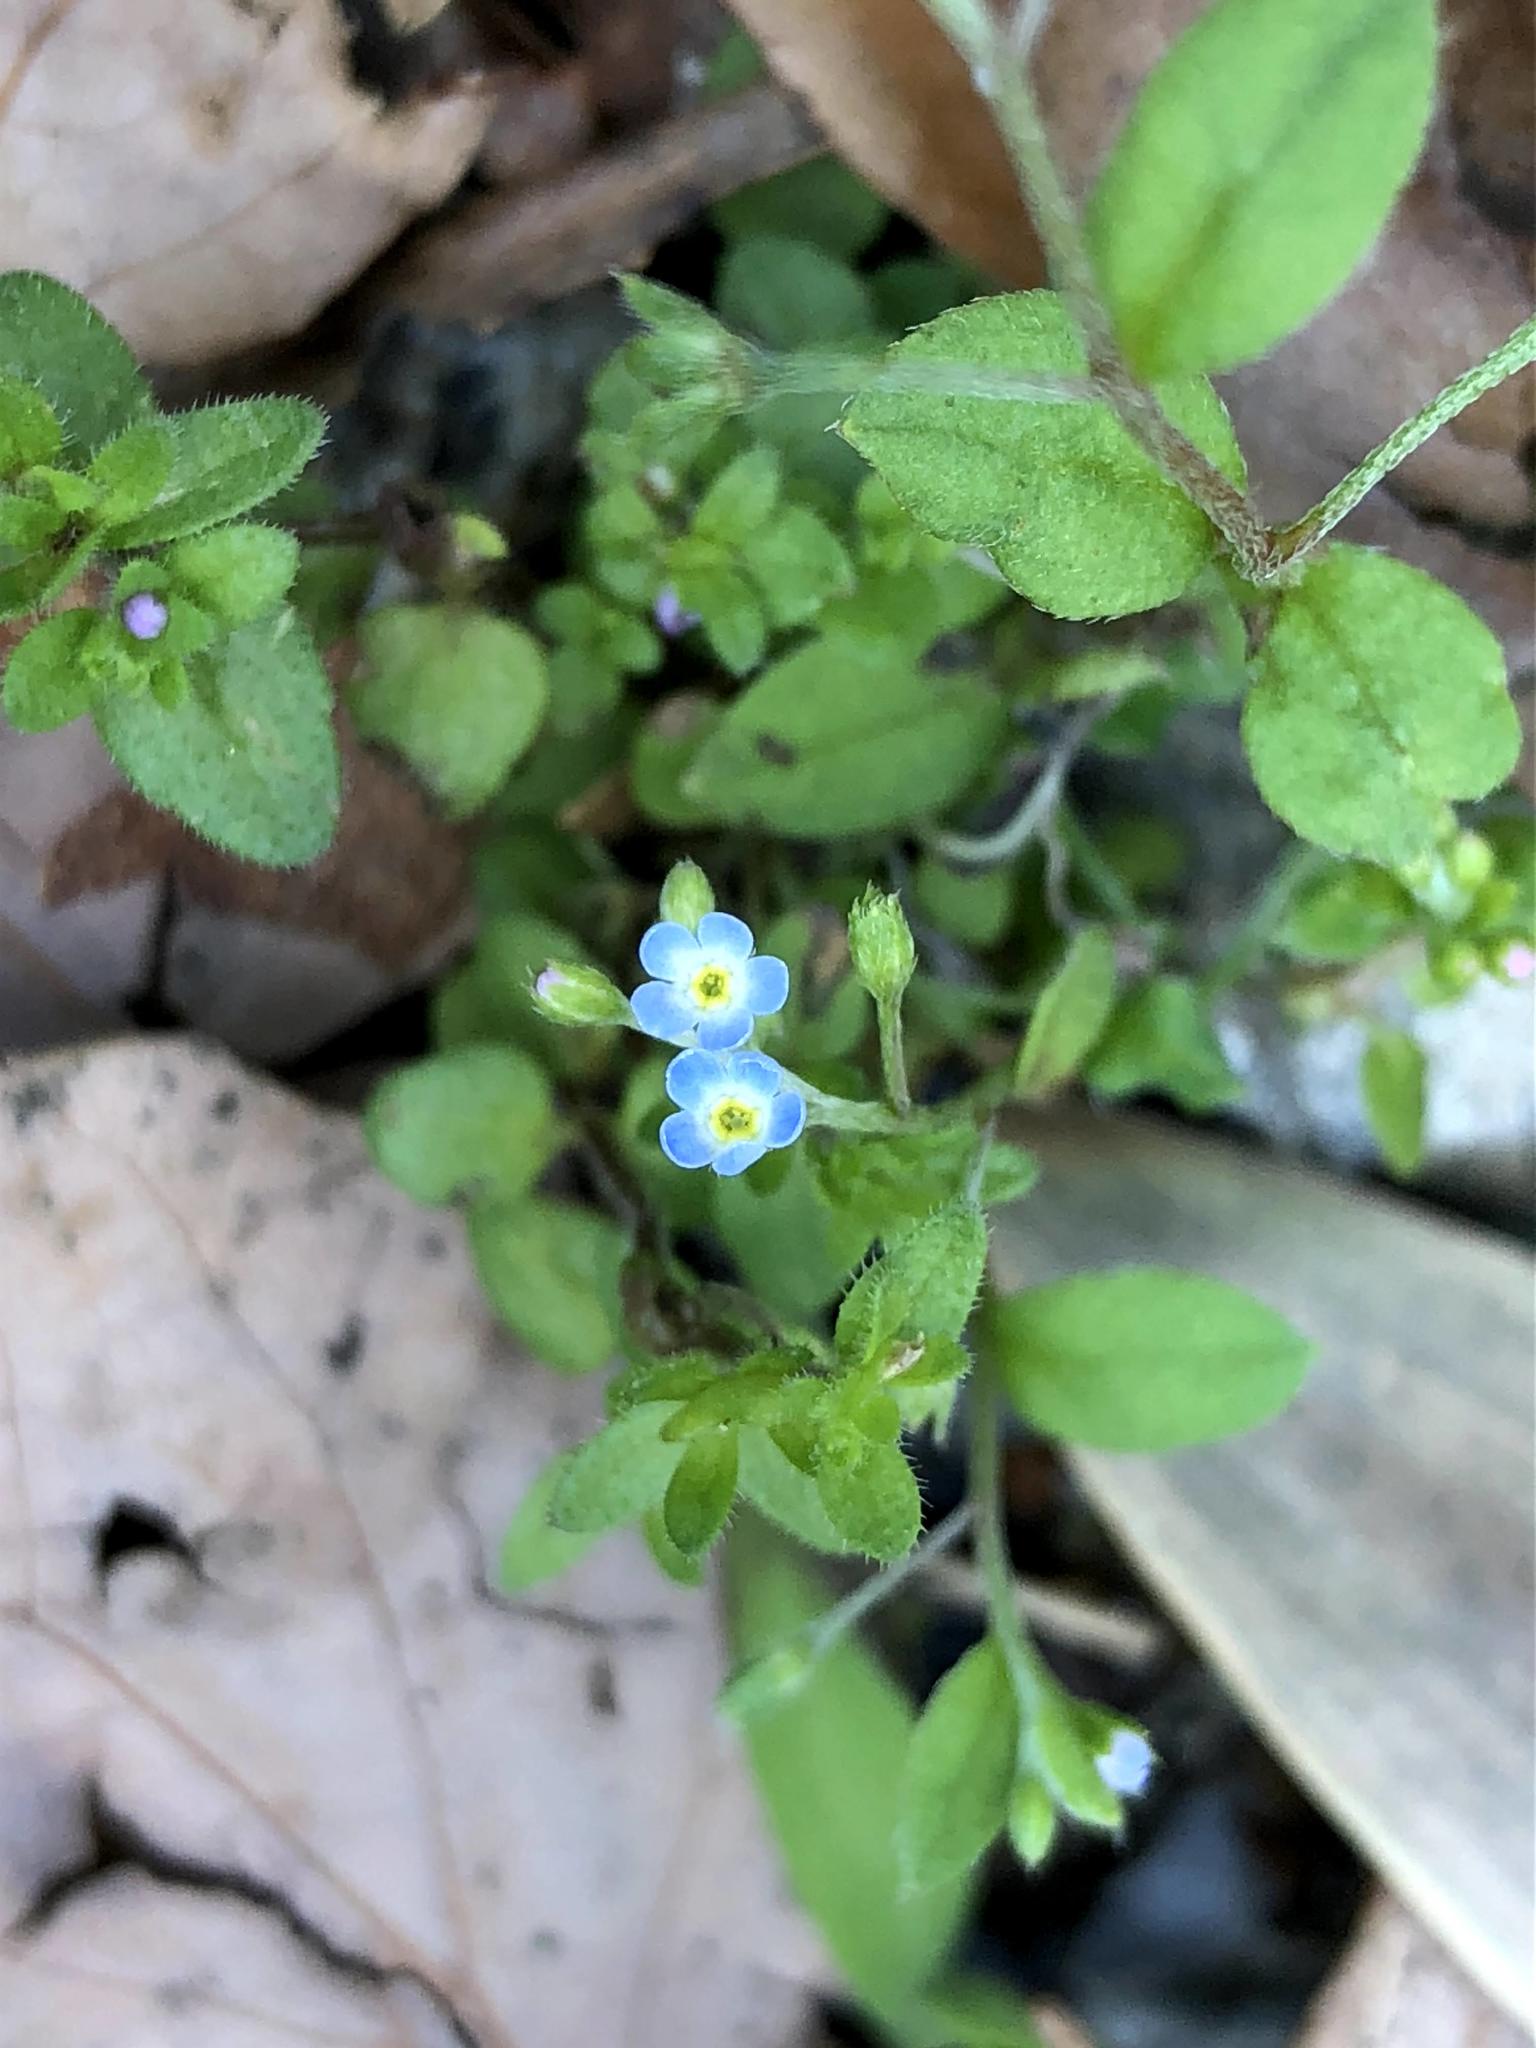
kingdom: Plantae
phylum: Tracheophyta
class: Magnoliopsida
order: Boraginales
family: Boraginaceae
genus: Trigonotis
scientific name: Trigonotis peduncularis
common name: Cucumber herb
